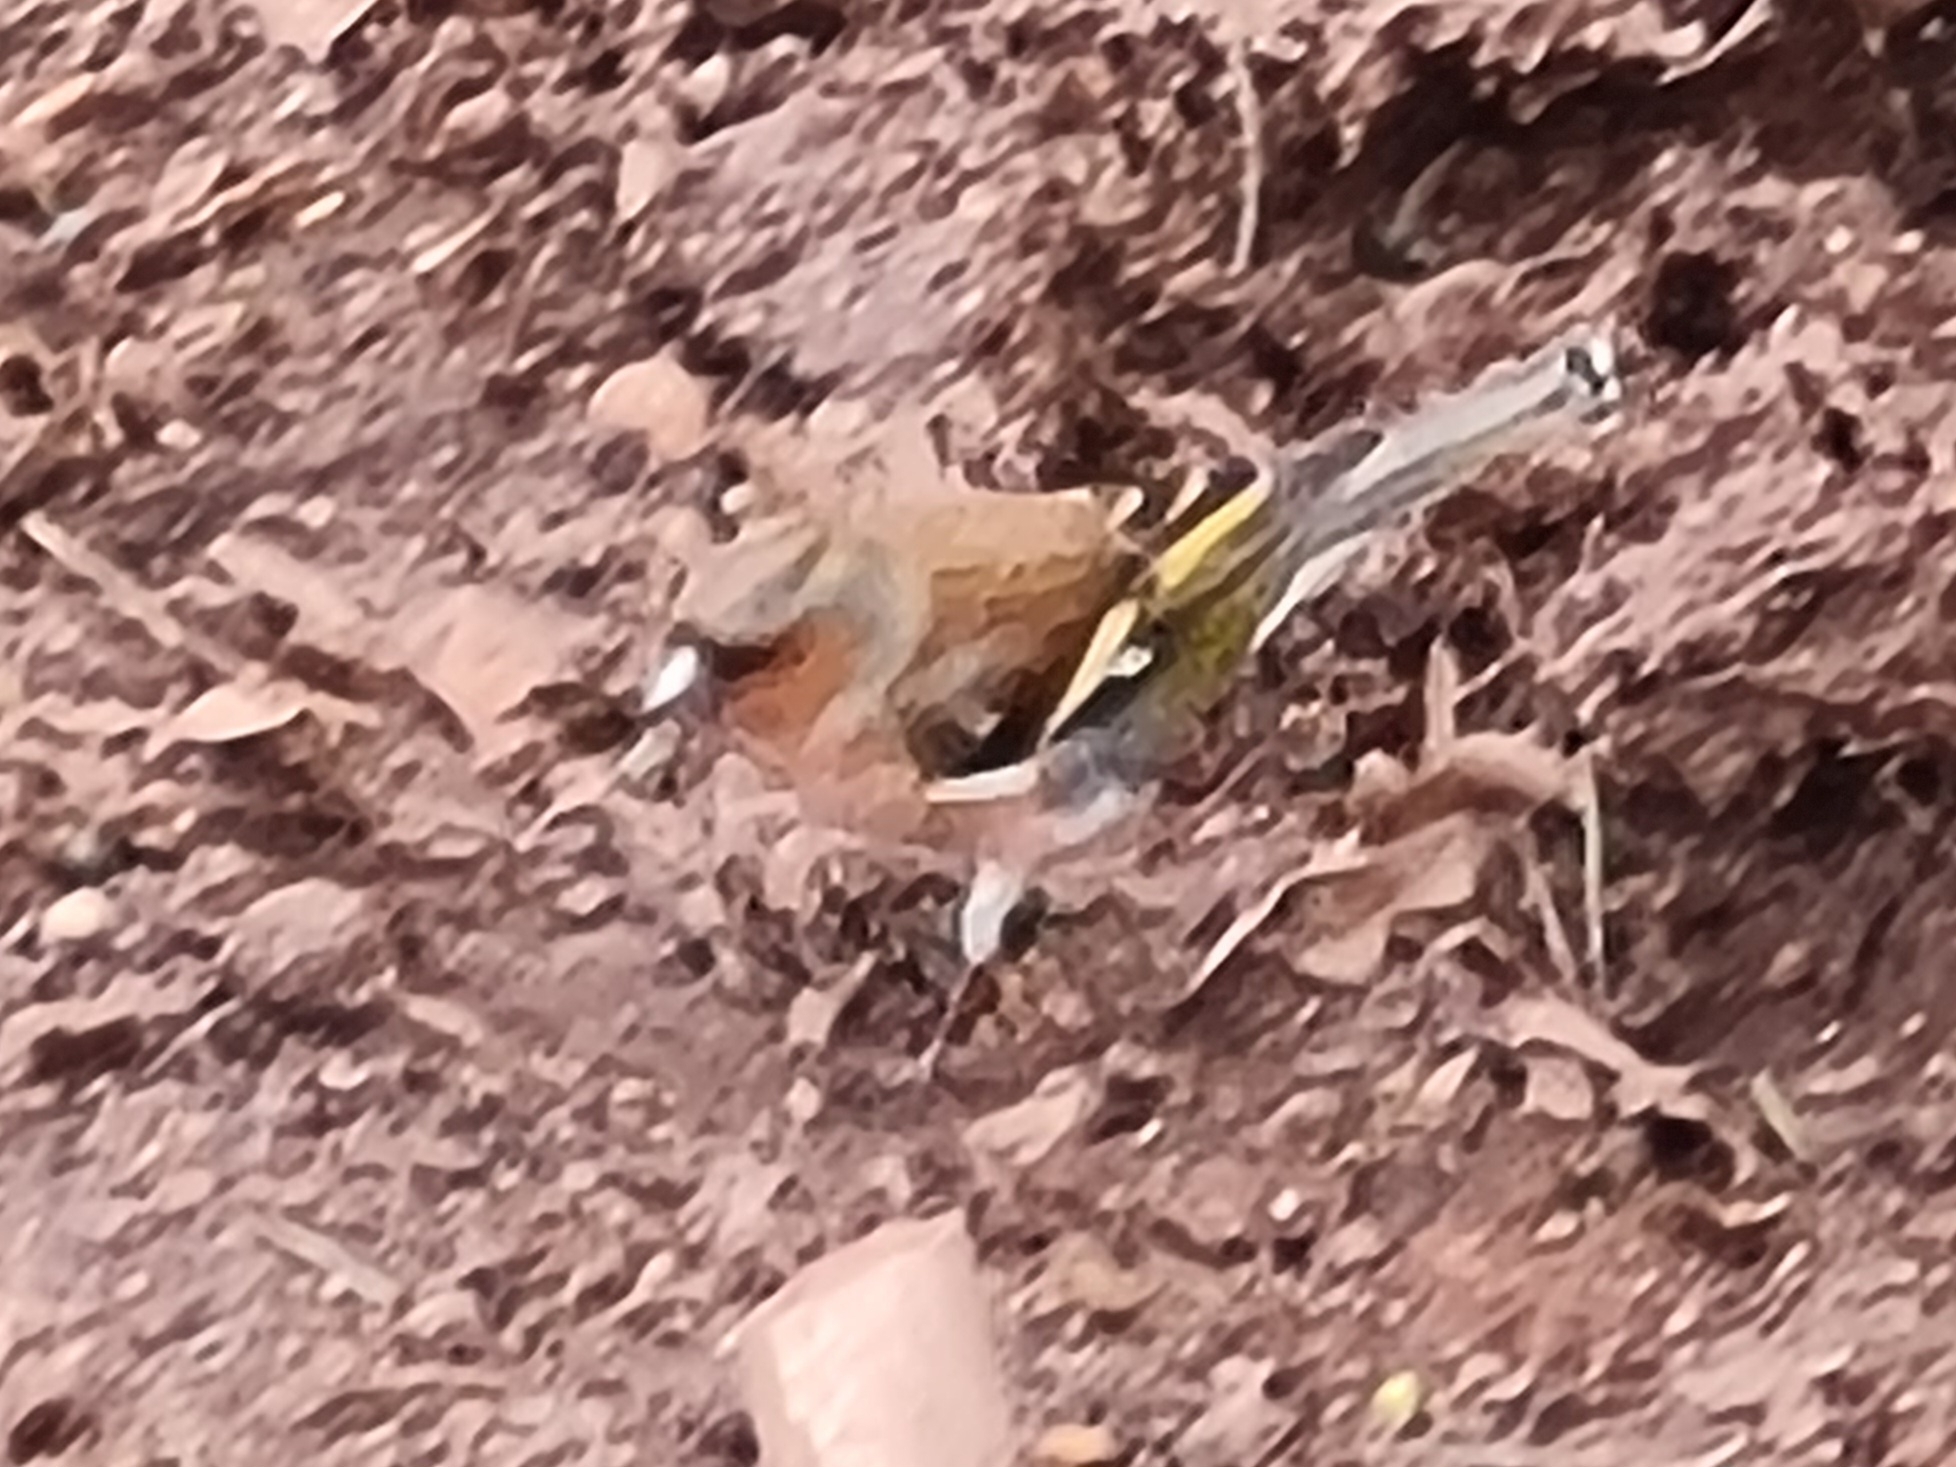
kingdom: Animalia
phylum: Chordata
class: Aves
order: Passeriformes
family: Fringillidae
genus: Fringilla
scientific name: Fringilla coelebs
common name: Common chaffinch
